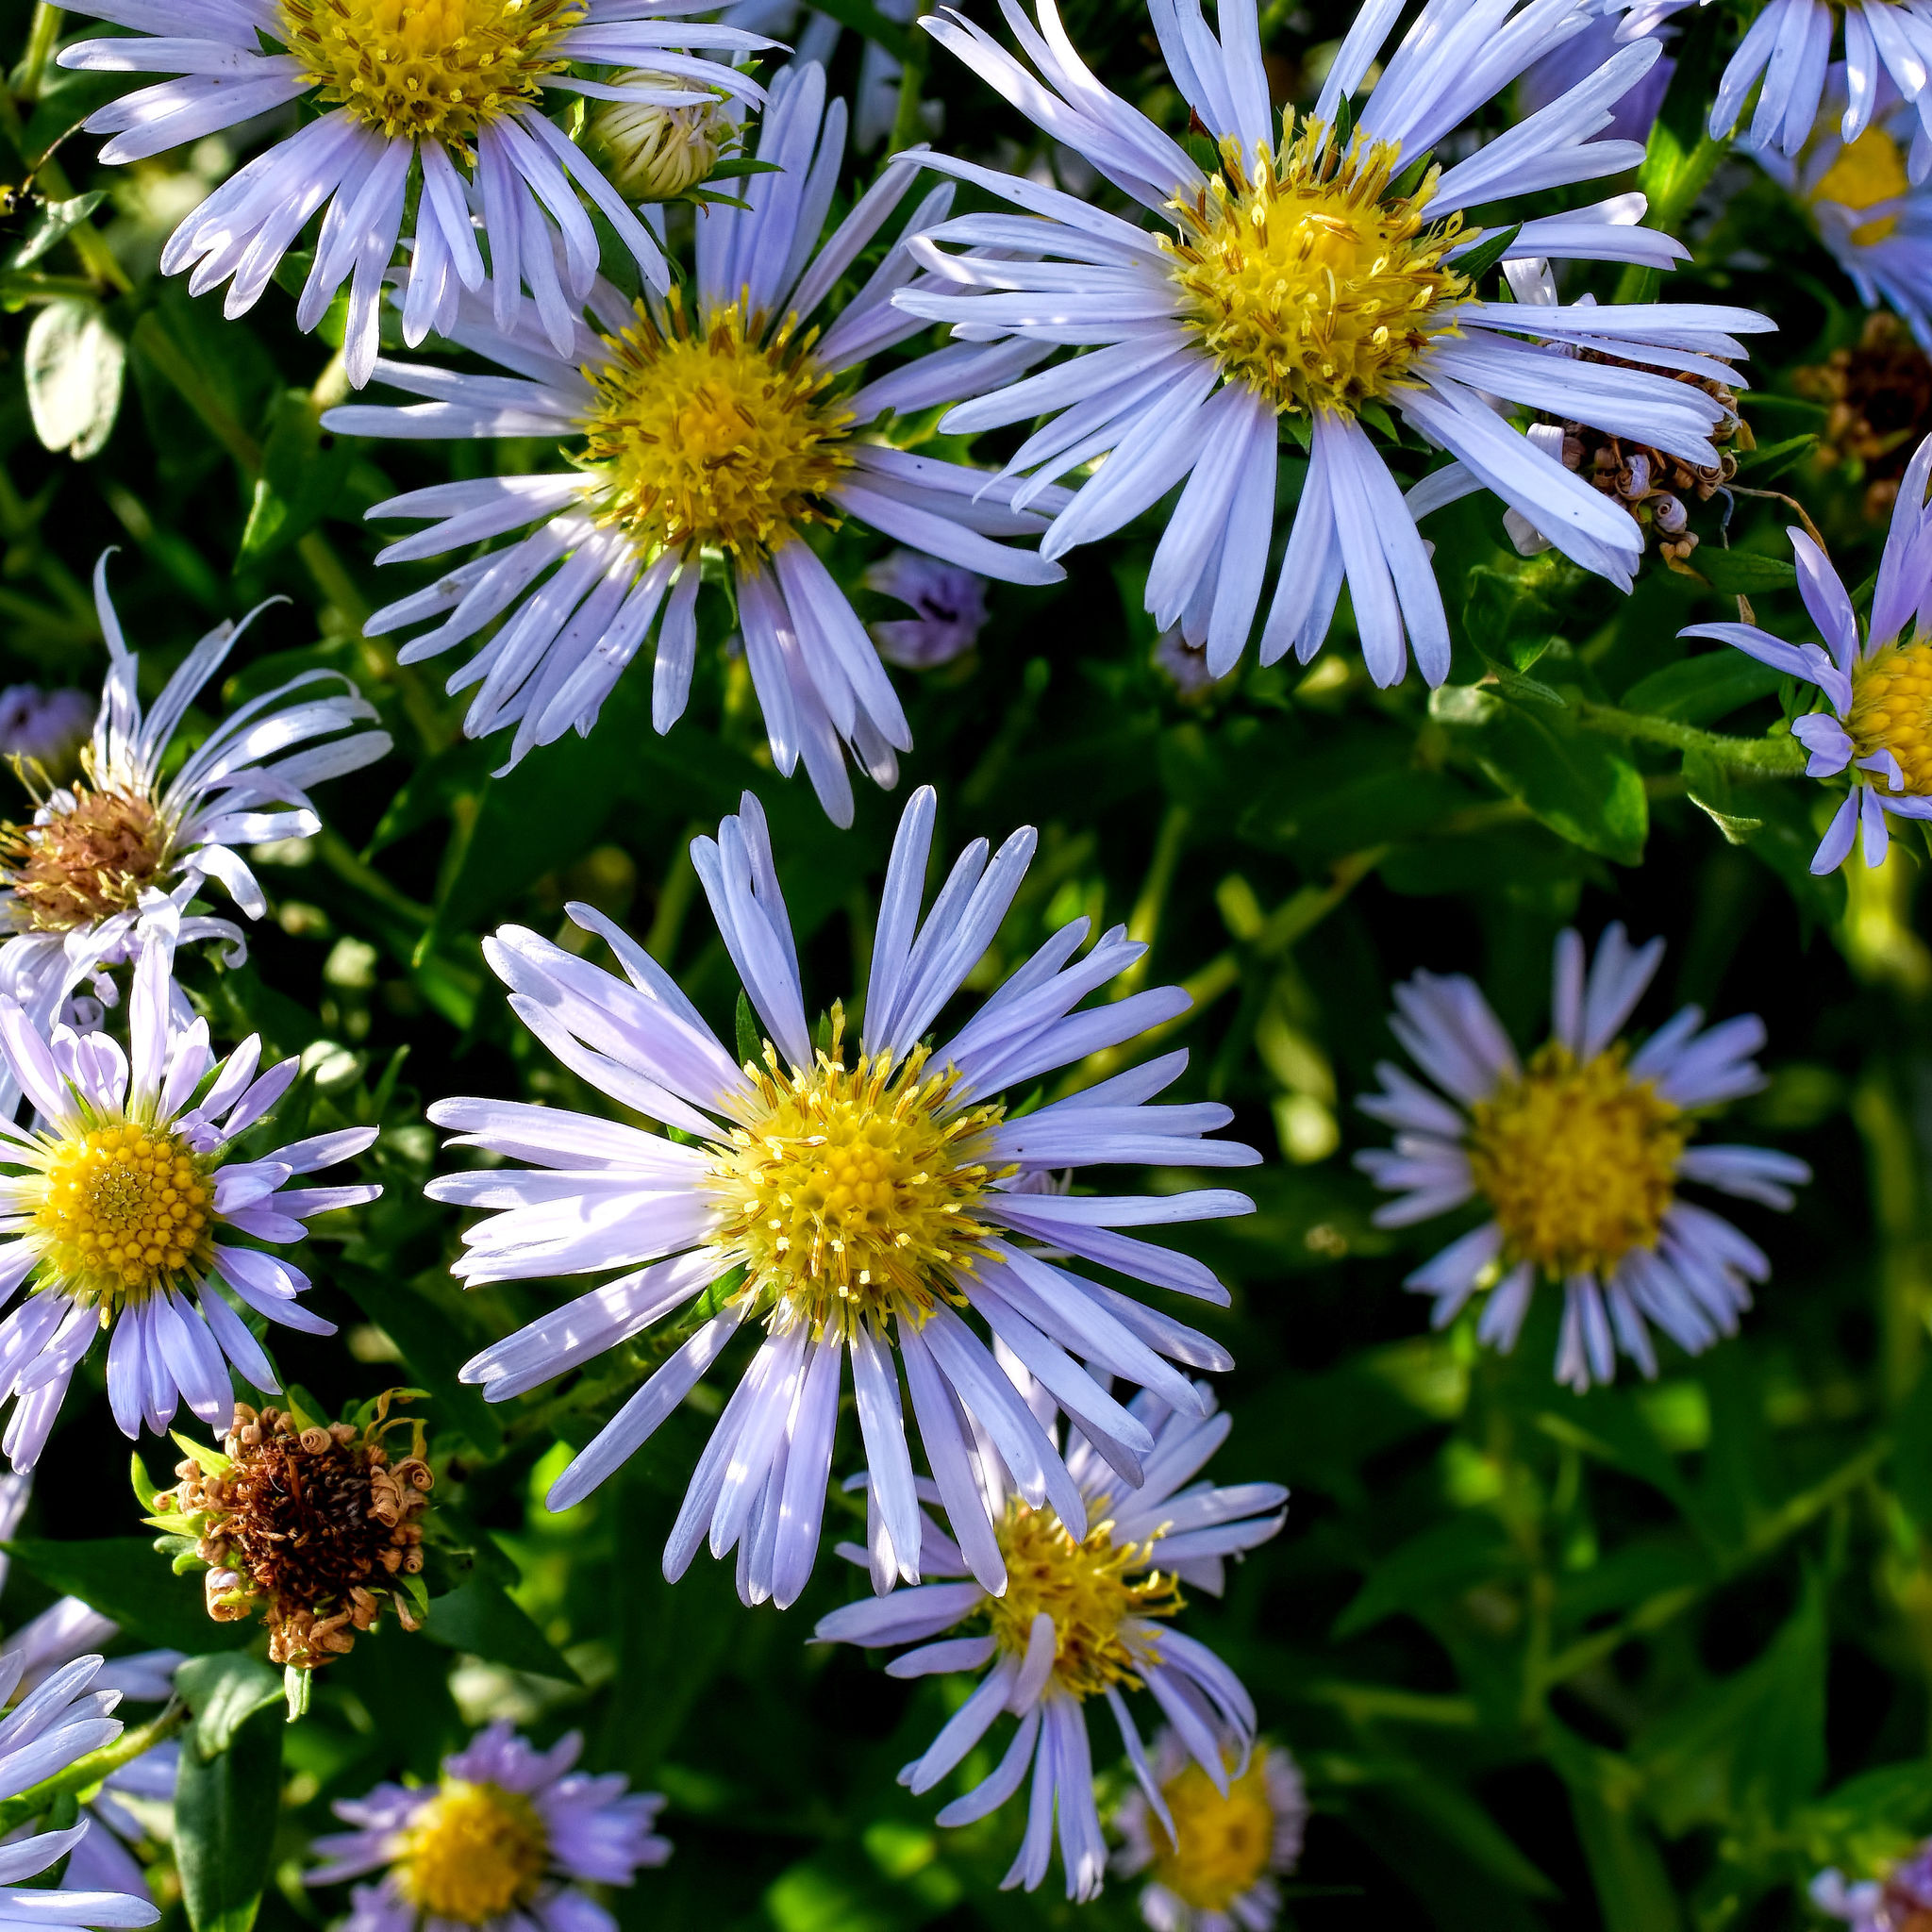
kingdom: Plantae
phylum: Tracheophyta
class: Magnoliopsida
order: Asterales
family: Asteraceae
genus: Symphyotrichum
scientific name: Symphyotrichum firmum
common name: Shining aster
